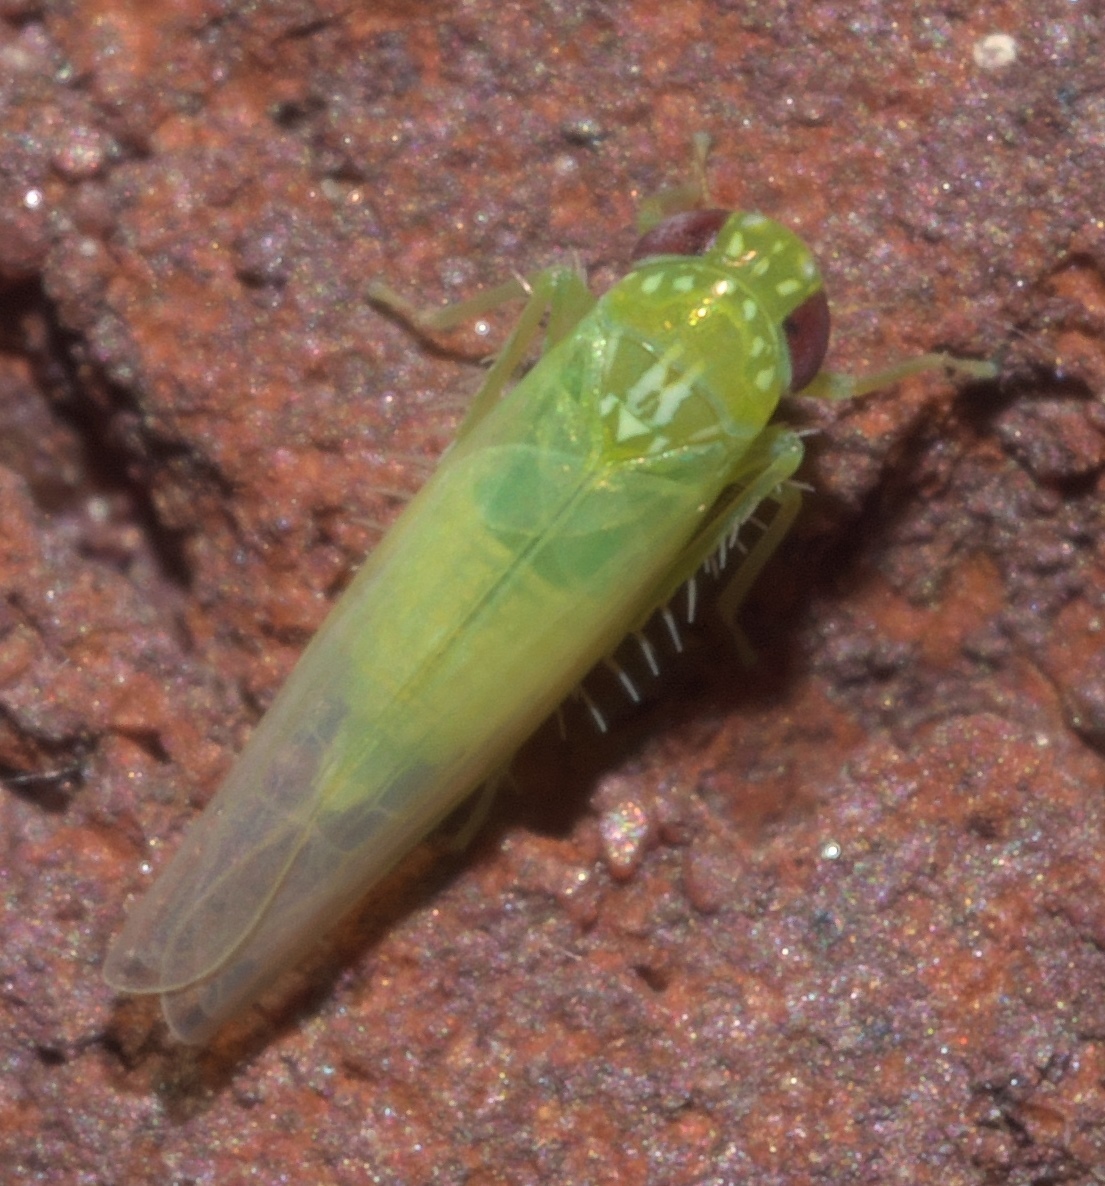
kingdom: Animalia
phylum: Arthropoda
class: Insecta
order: Hemiptera
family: Cicadellidae
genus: Empoasca
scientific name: Empoasca fabae
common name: Potato leafhopper
